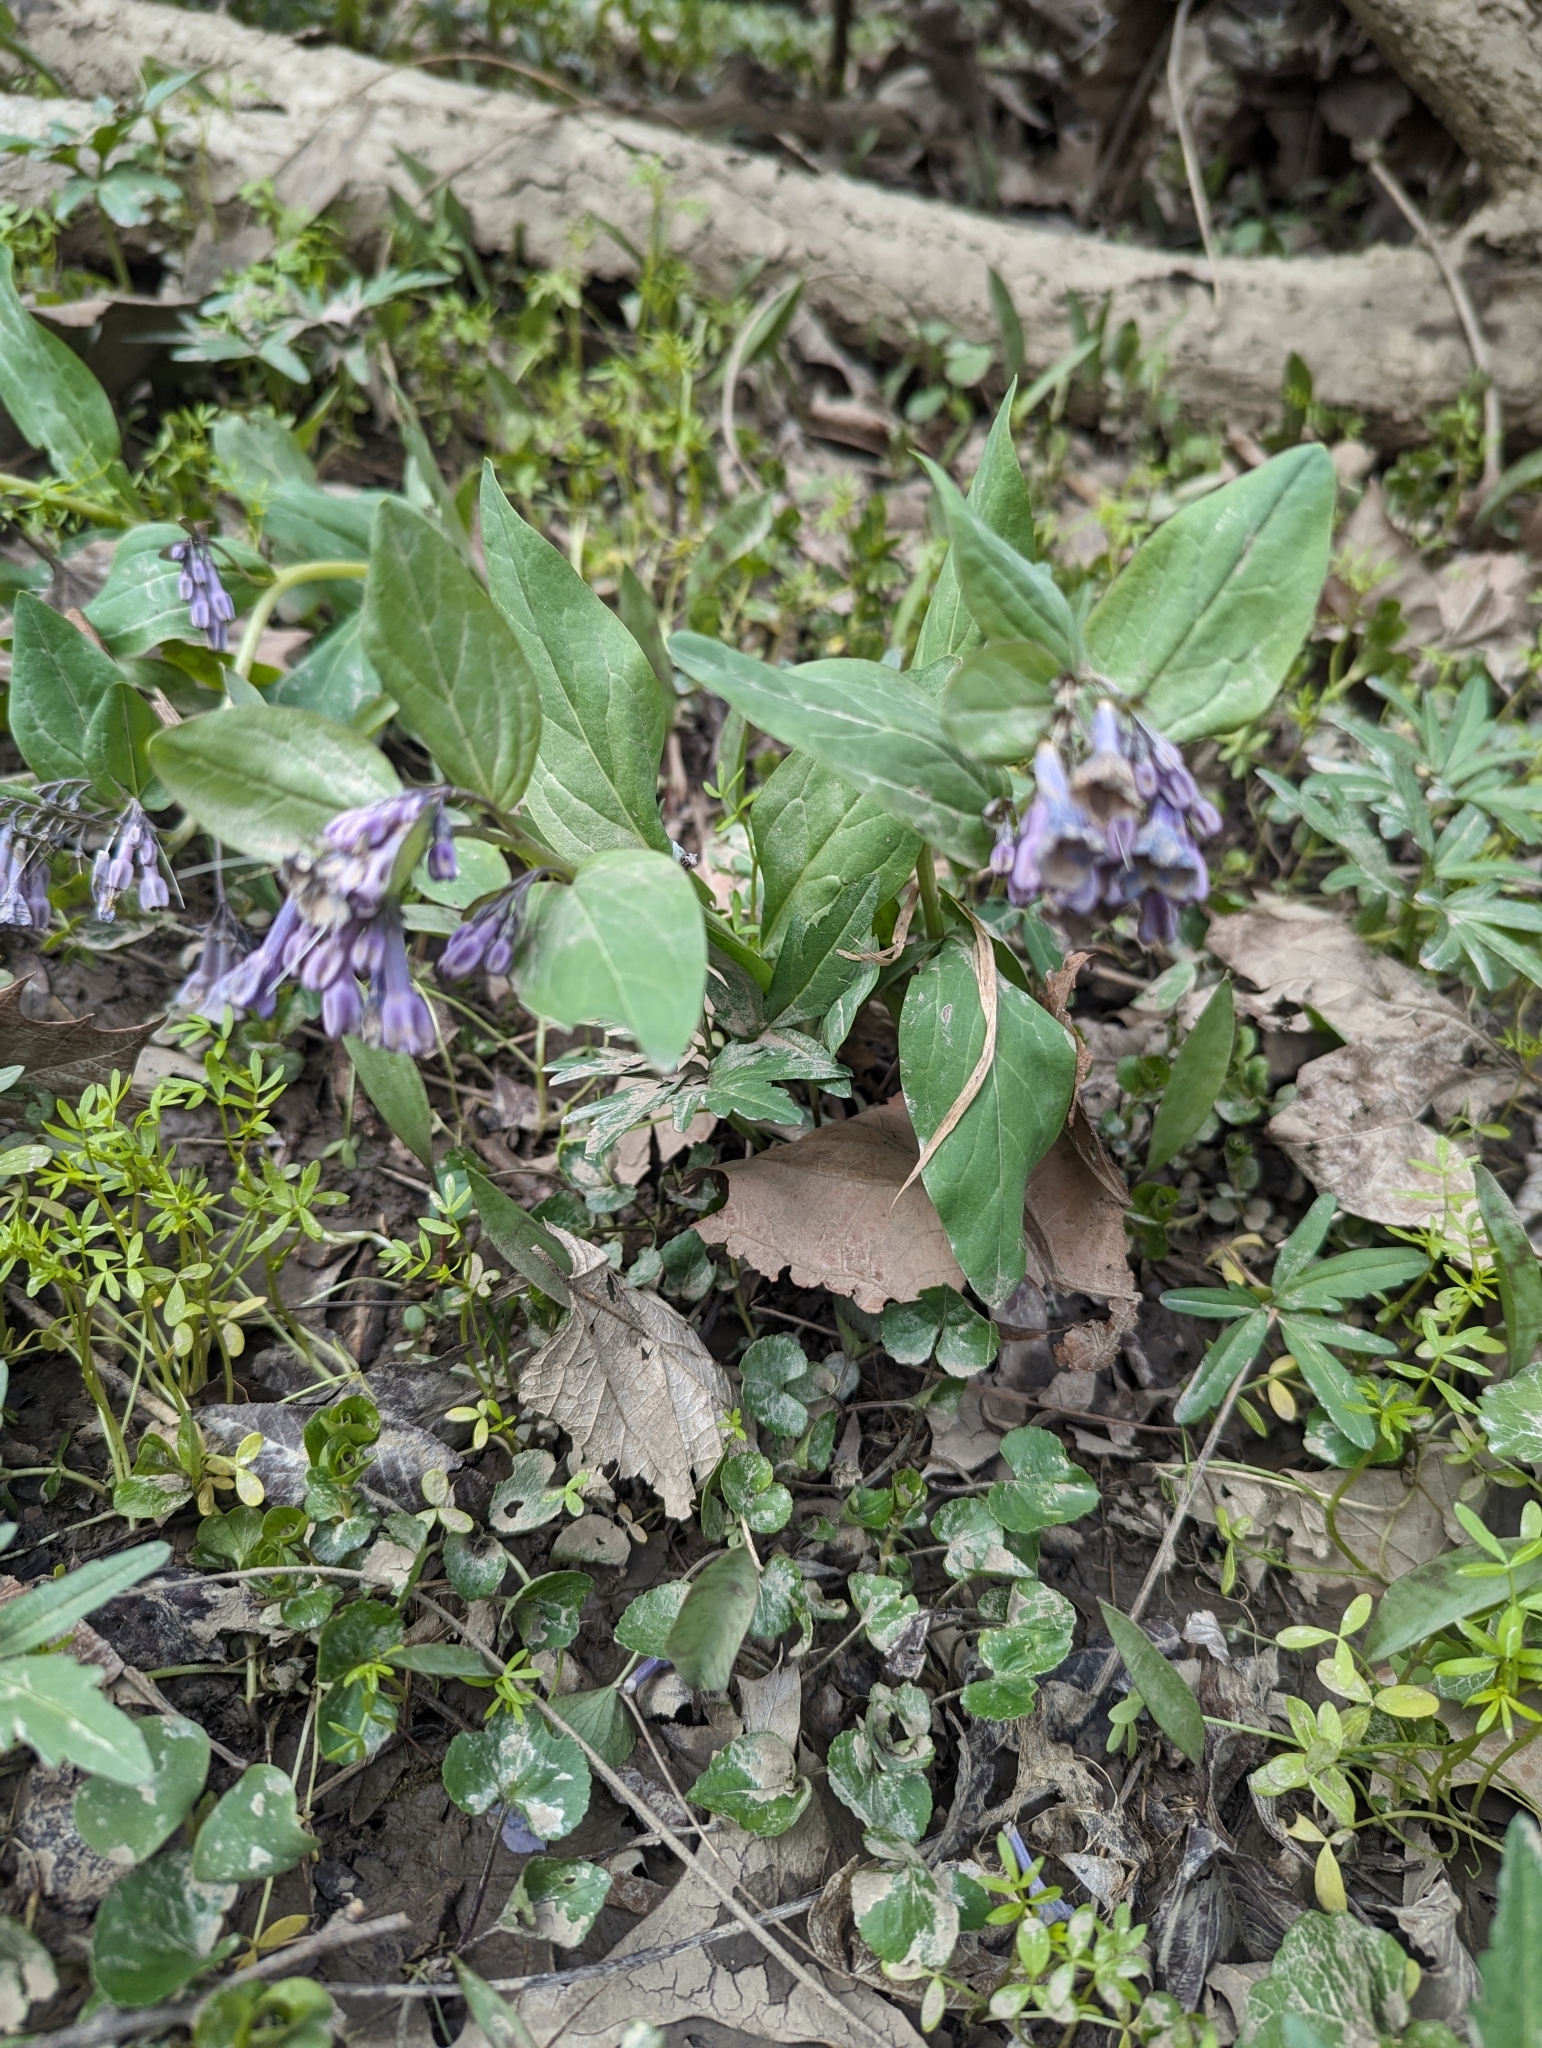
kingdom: Plantae
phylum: Tracheophyta
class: Magnoliopsida
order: Boraginales
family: Boraginaceae
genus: Mertensia
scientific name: Mertensia virginica
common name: Virginia bluebells
